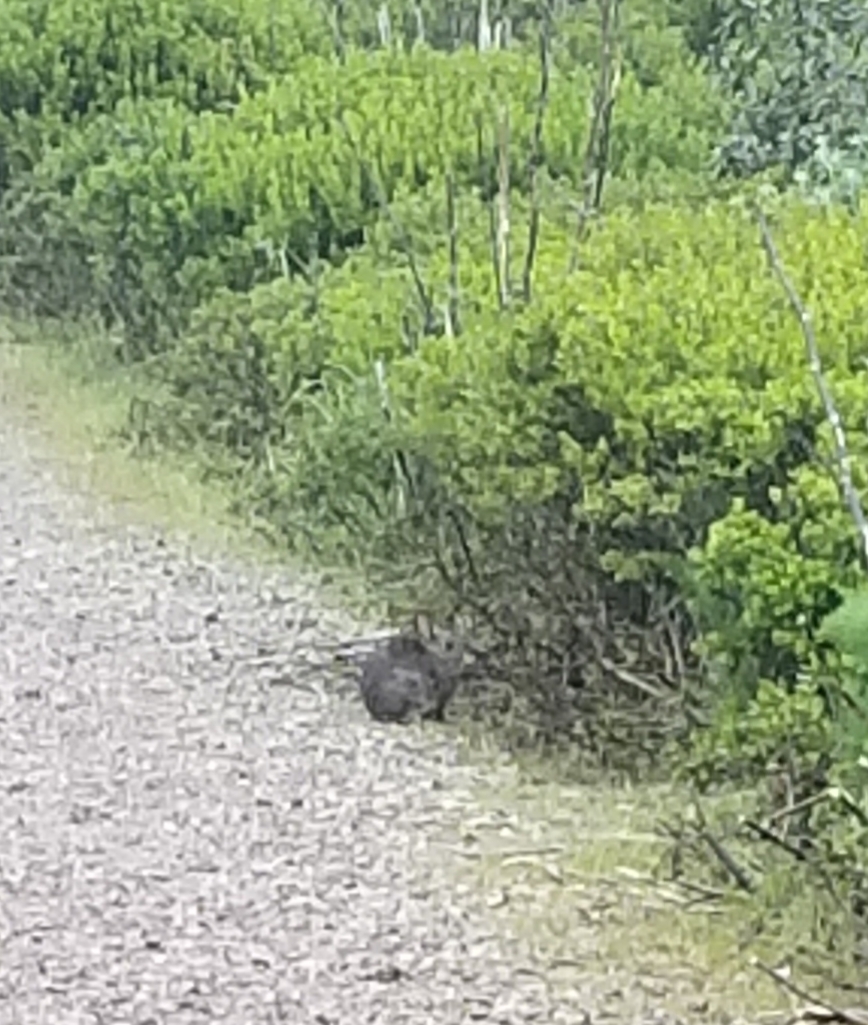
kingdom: Animalia
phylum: Chordata
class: Mammalia
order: Lagomorpha
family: Leporidae
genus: Sylvilagus
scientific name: Sylvilagus bachmani
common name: Brush rabbit
